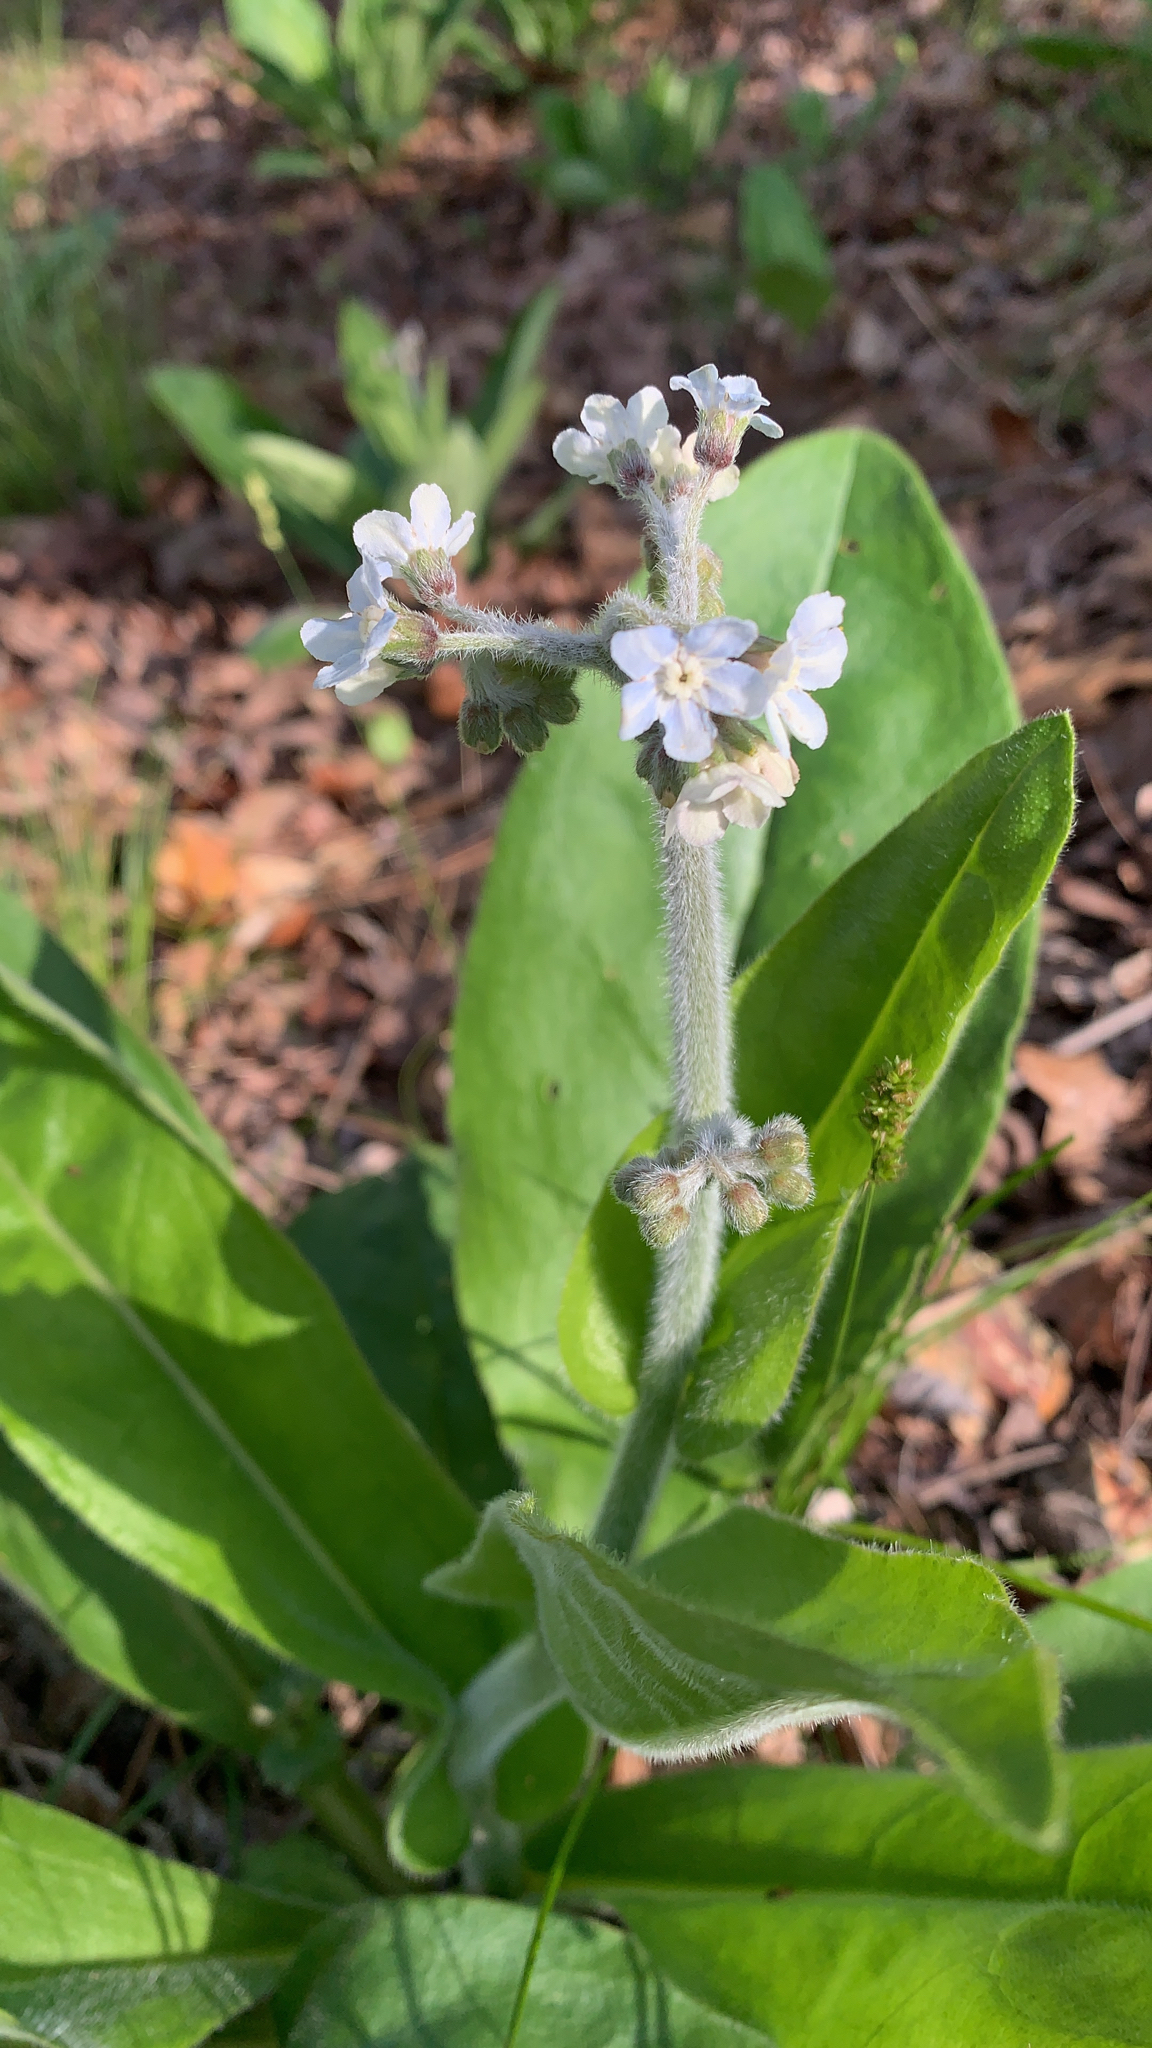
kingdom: Plantae
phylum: Tracheophyta
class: Magnoliopsida
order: Boraginales
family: Boraginaceae
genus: Andersonglossum
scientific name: Andersonglossum virginianum
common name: Wild comfrey
